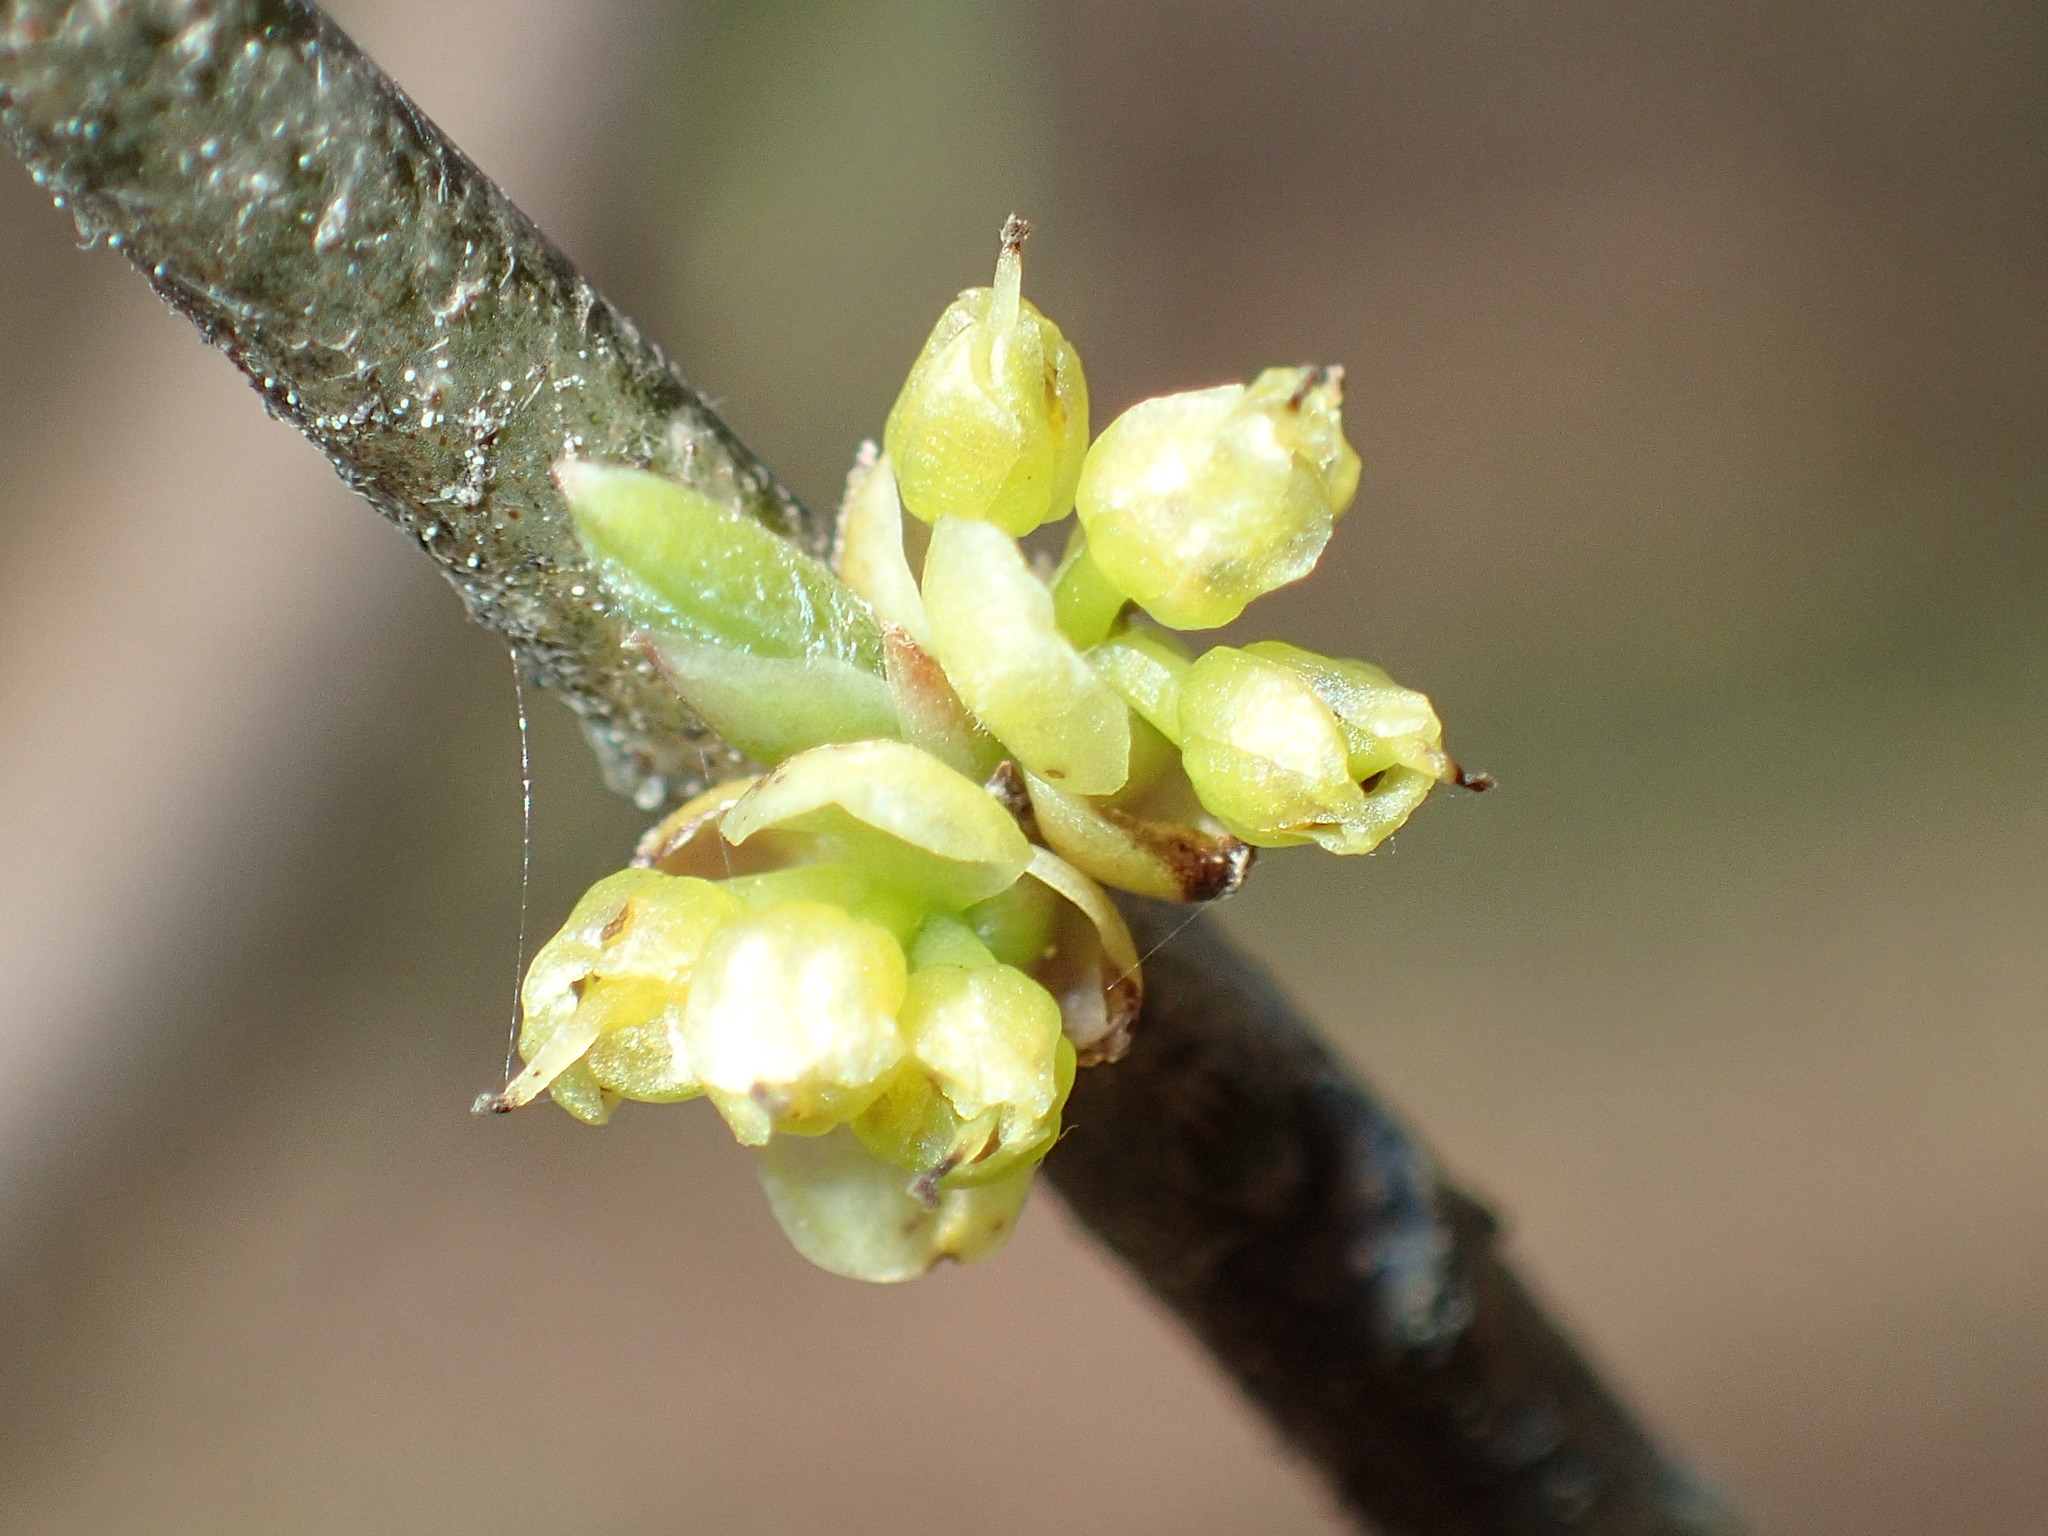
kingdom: Plantae
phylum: Tracheophyta
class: Magnoliopsida
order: Laurales
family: Lauraceae
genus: Lindera
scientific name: Lindera benzoin
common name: Spicebush
